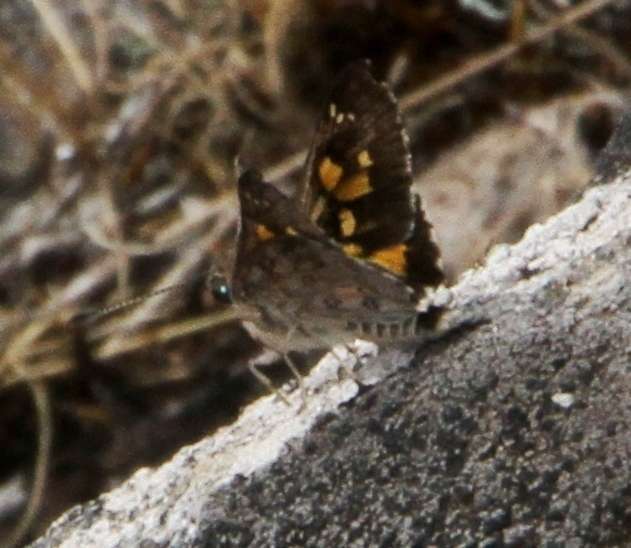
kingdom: Animalia
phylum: Arthropoda
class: Insecta
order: Lepidoptera
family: Hesperiidae
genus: Trapezites
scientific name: Trapezites phigalioides
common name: Montane ochre
